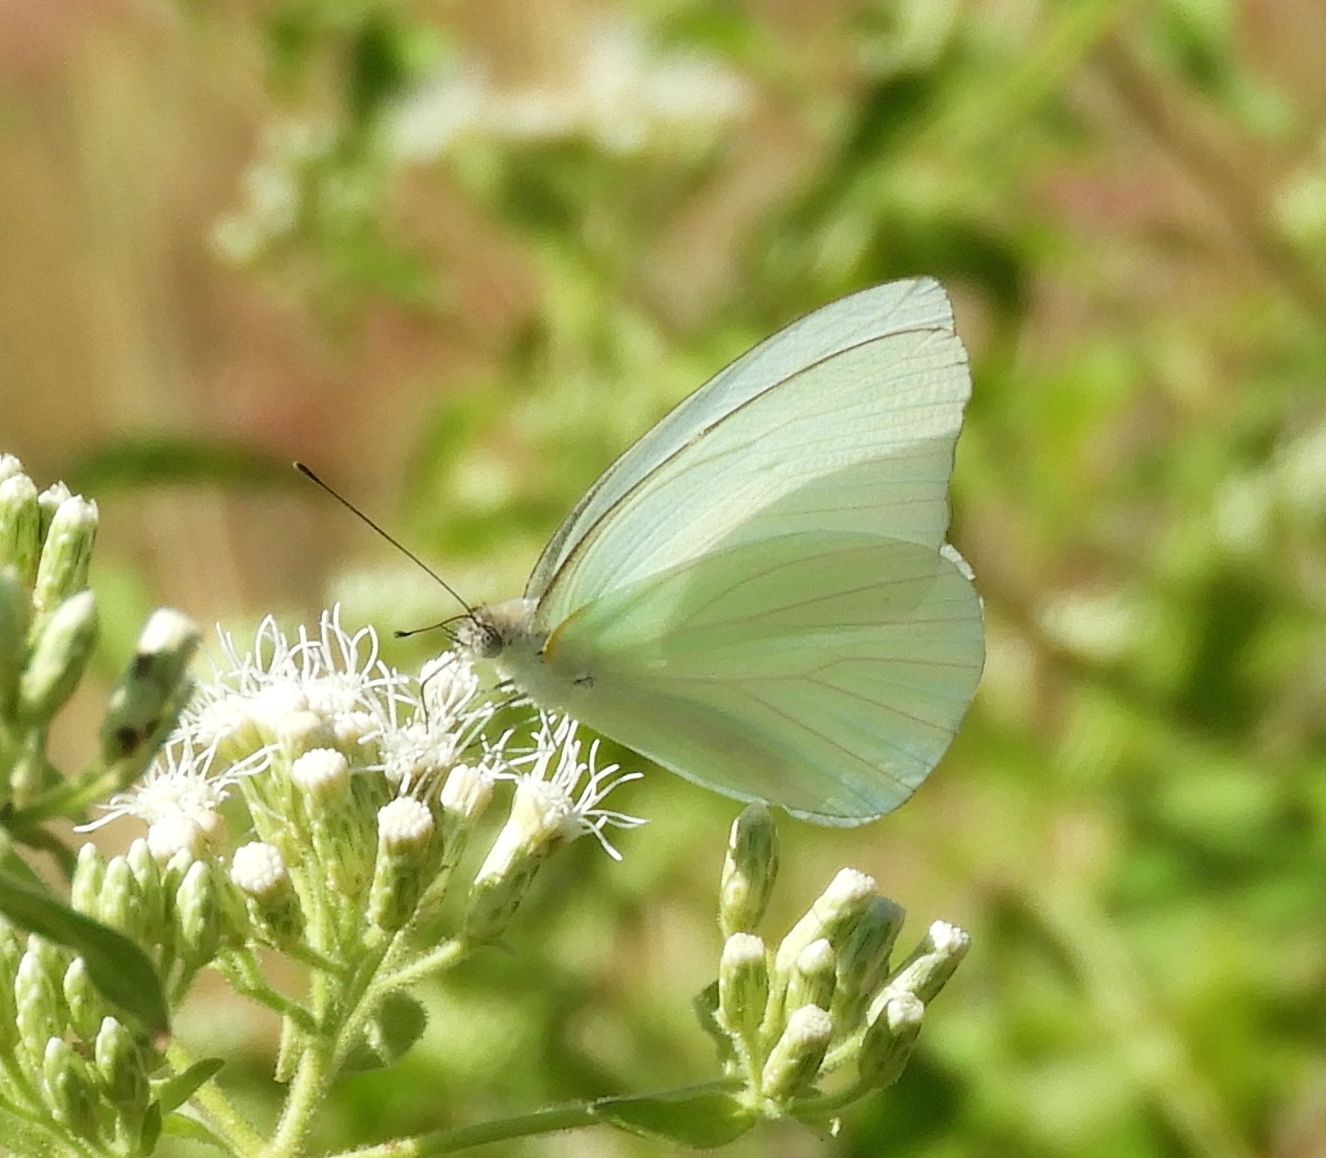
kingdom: Animalia
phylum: Arthropoda
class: Insecta
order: Lepidoptera
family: Pieridae
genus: Glutophrissa
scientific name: Glutophrissa drusilla
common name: Florida white
